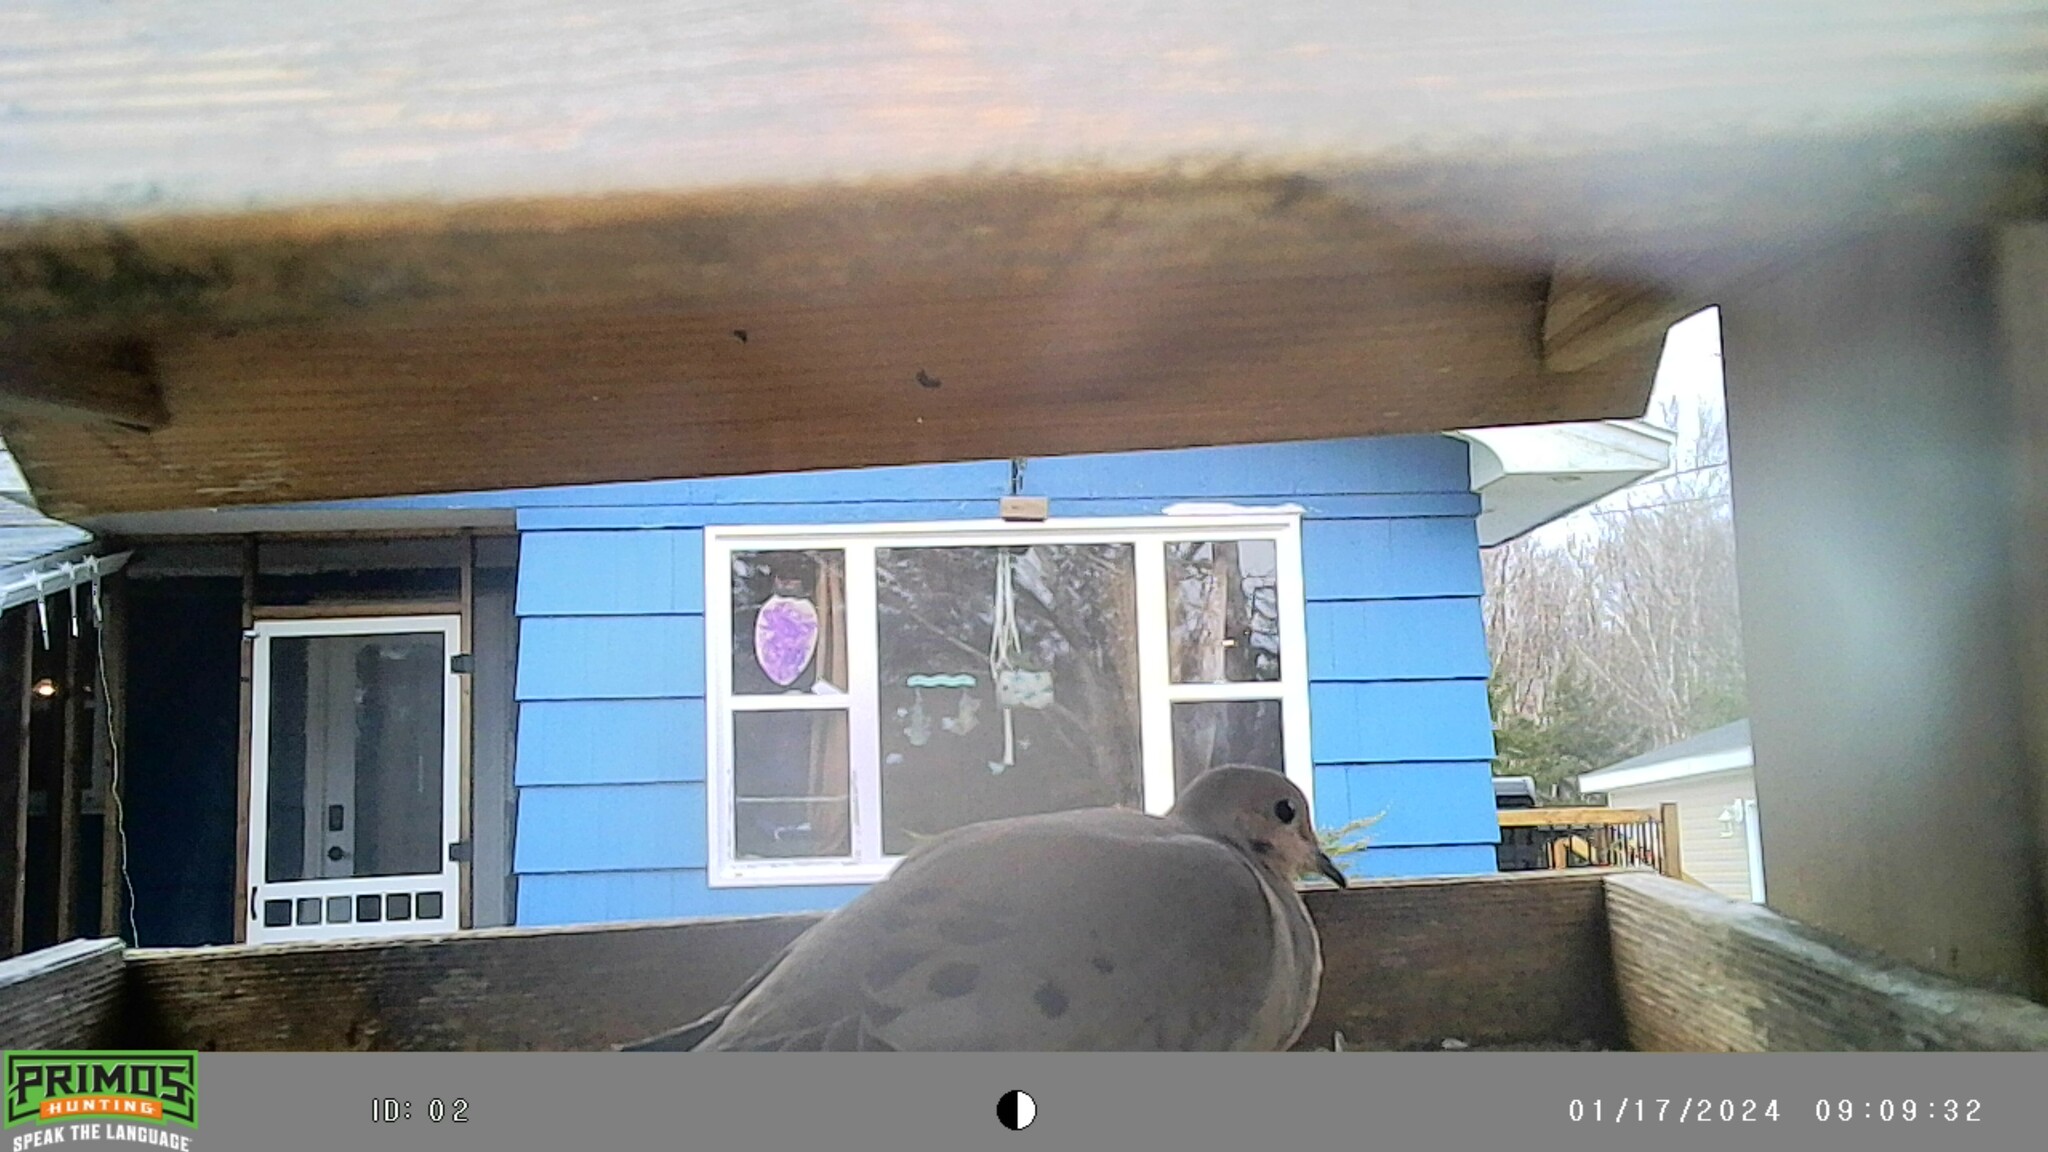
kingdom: Animalia
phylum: Chordata
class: Aves
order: Columbiformes
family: Columbidae
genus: Zenaida
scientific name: Zenaida macroura
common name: Mourning dove
